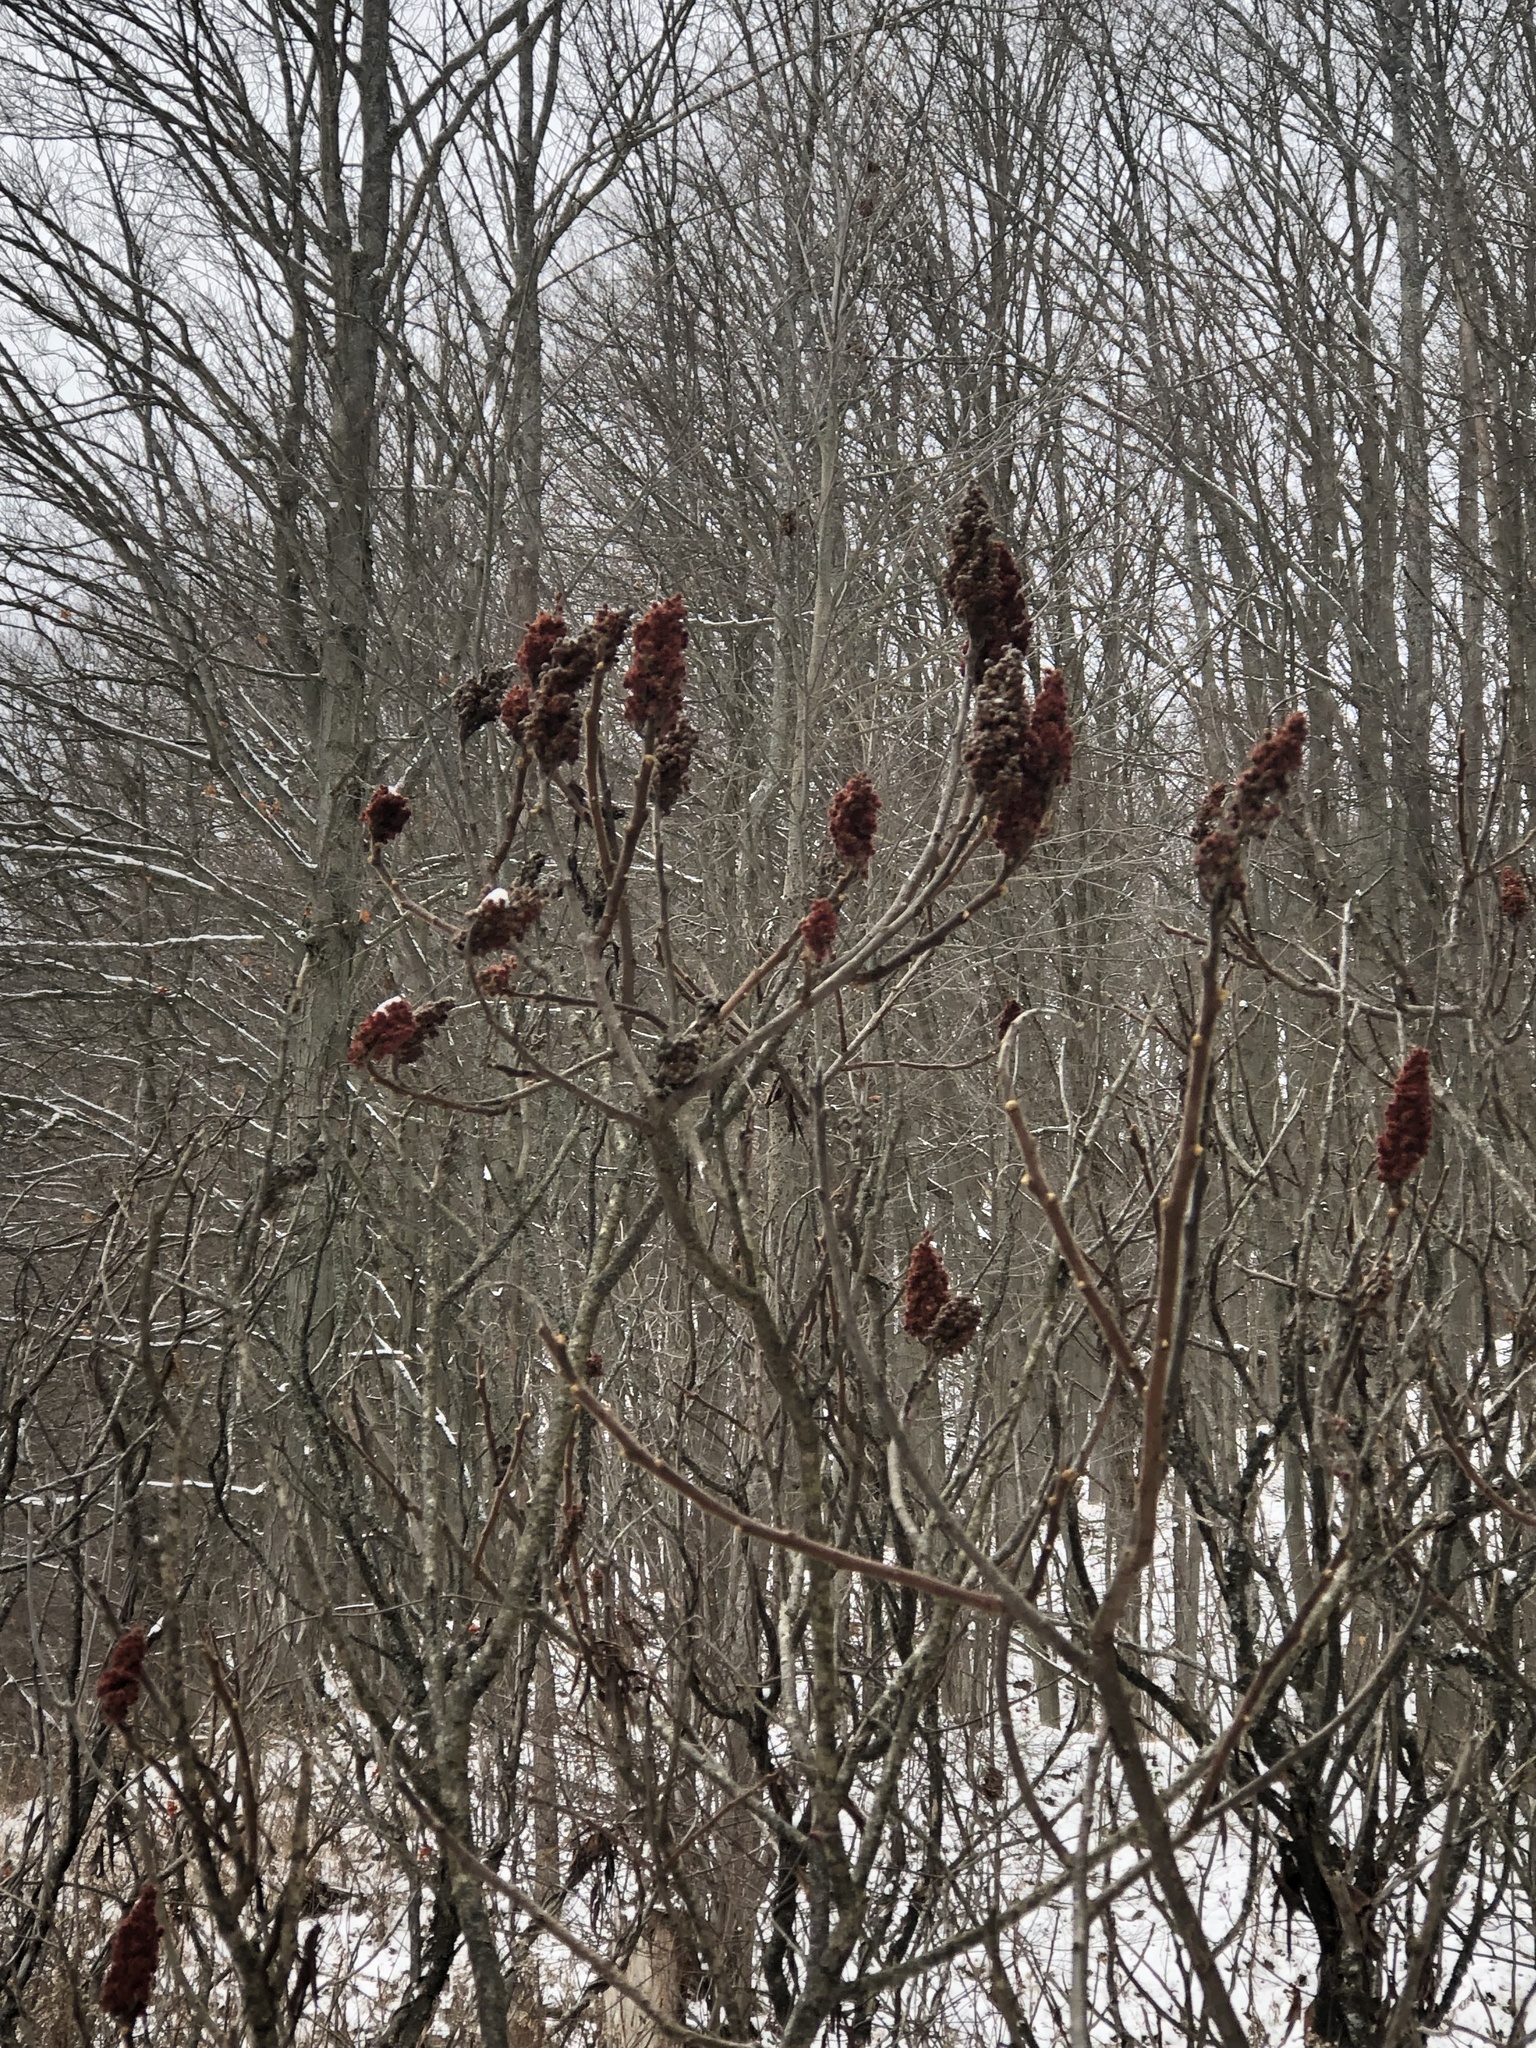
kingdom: Plantae
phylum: Tracheophyta
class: Magnoliopsida
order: Sapindales
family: Anacardiaceae
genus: Rhus
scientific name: Rhus typhina
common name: Staghorn sumac
